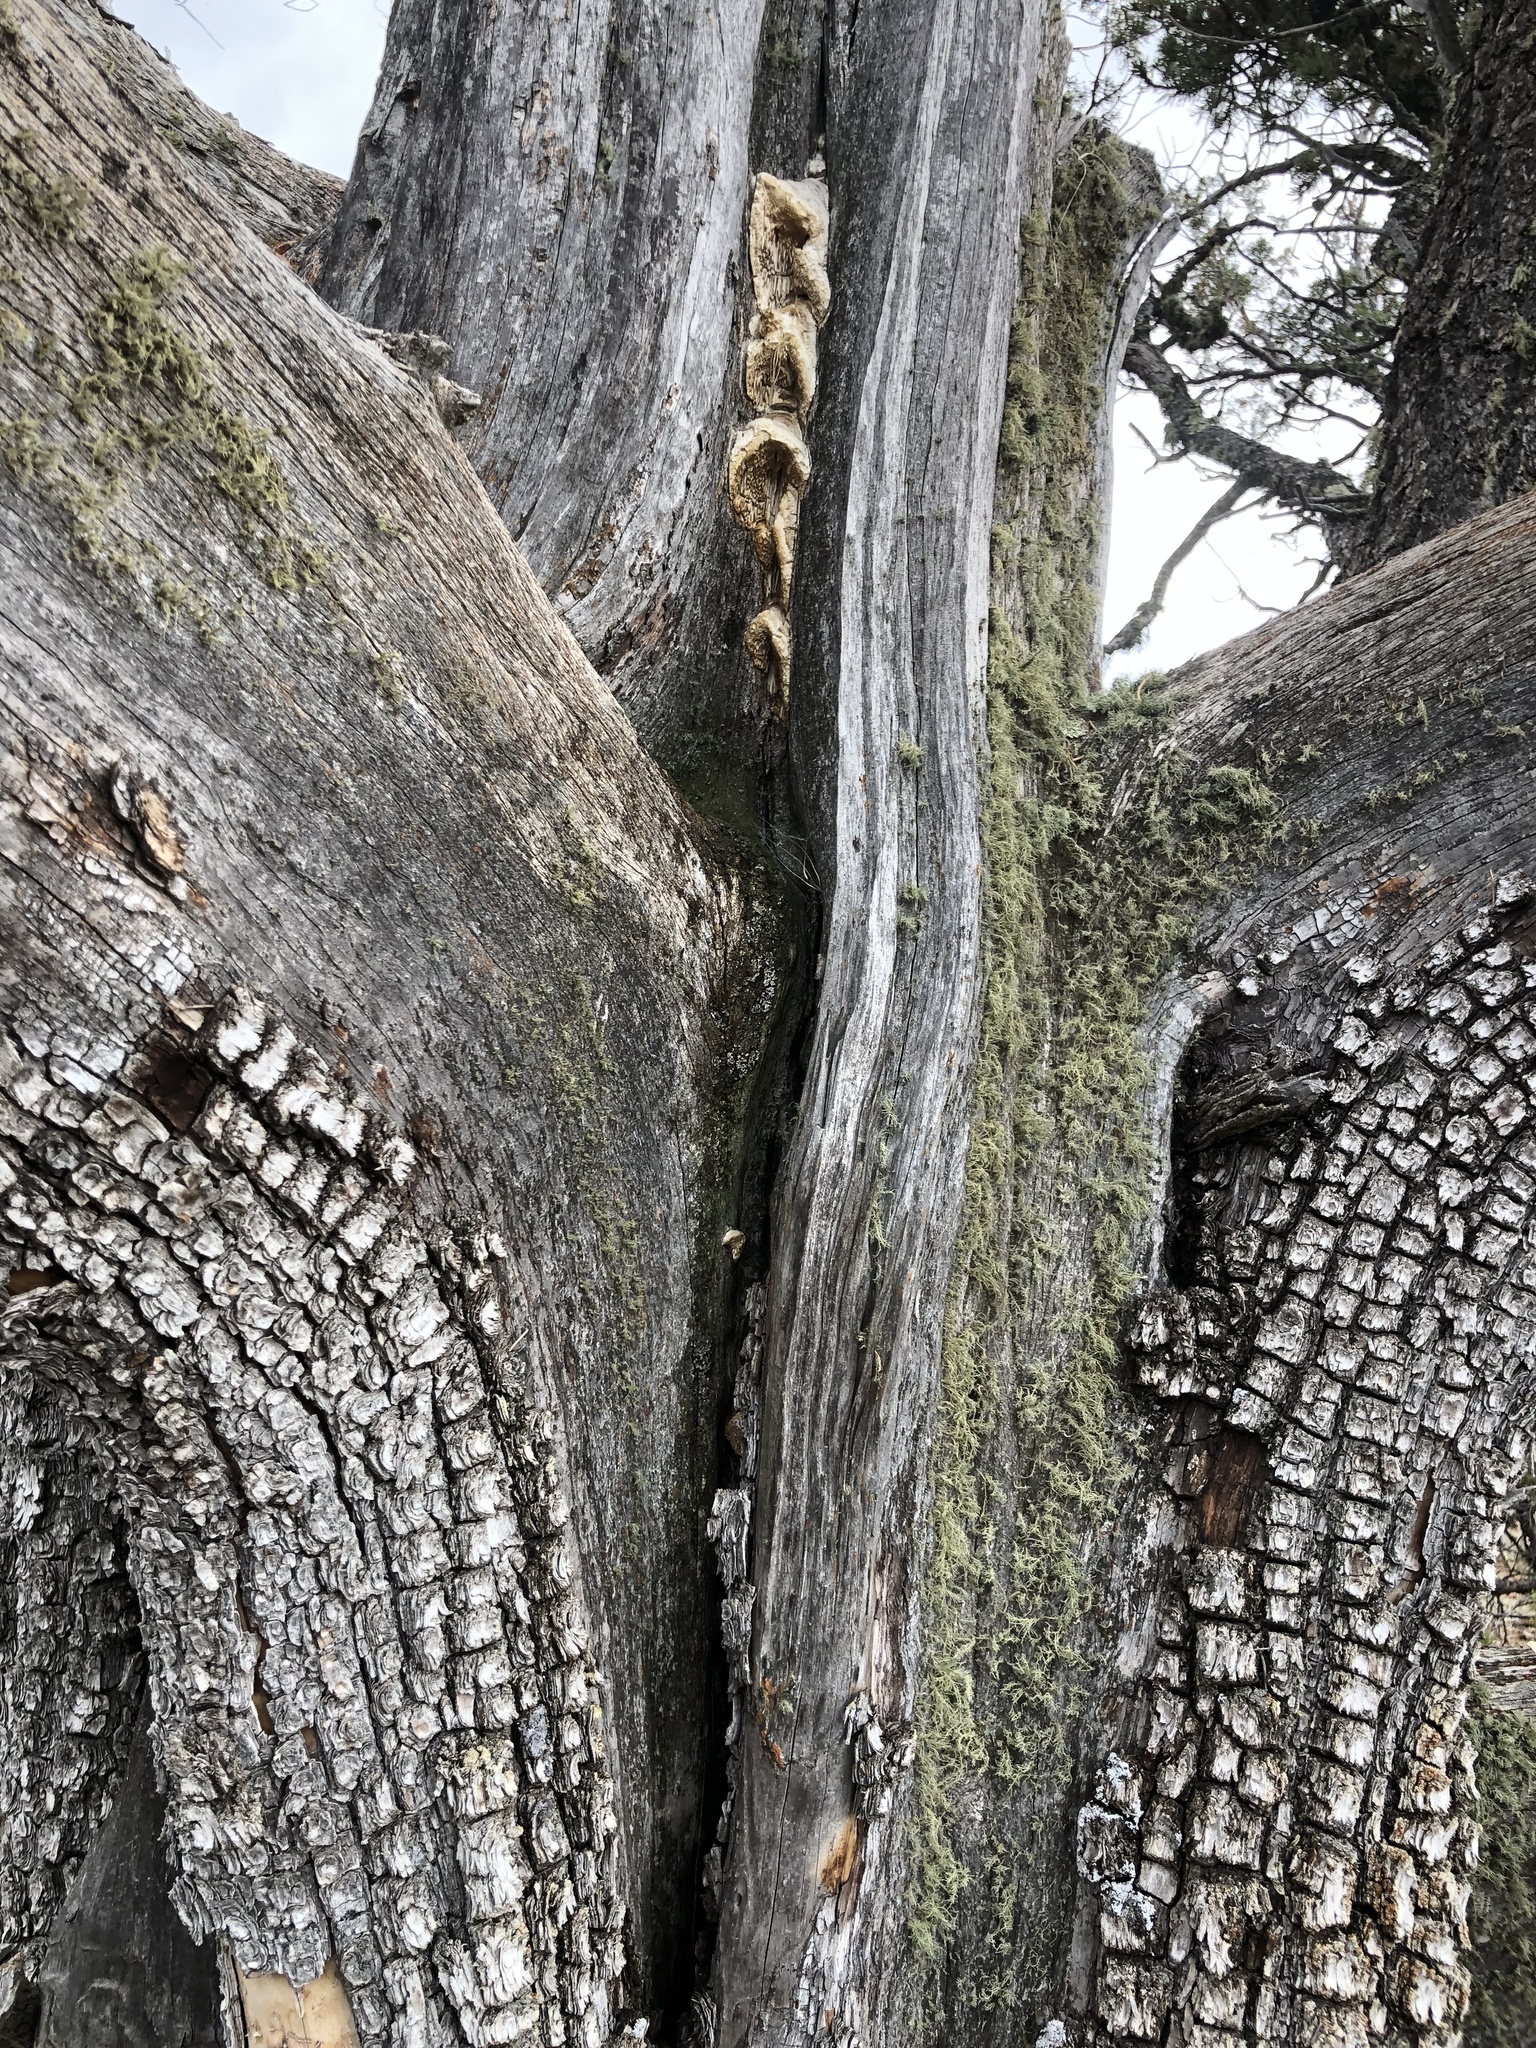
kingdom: Fungi
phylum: Basidiomycota
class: Agaricomycetes
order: Polyporales
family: Fomitopsidaceae
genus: Fomitopsis
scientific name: Fomitopsis
